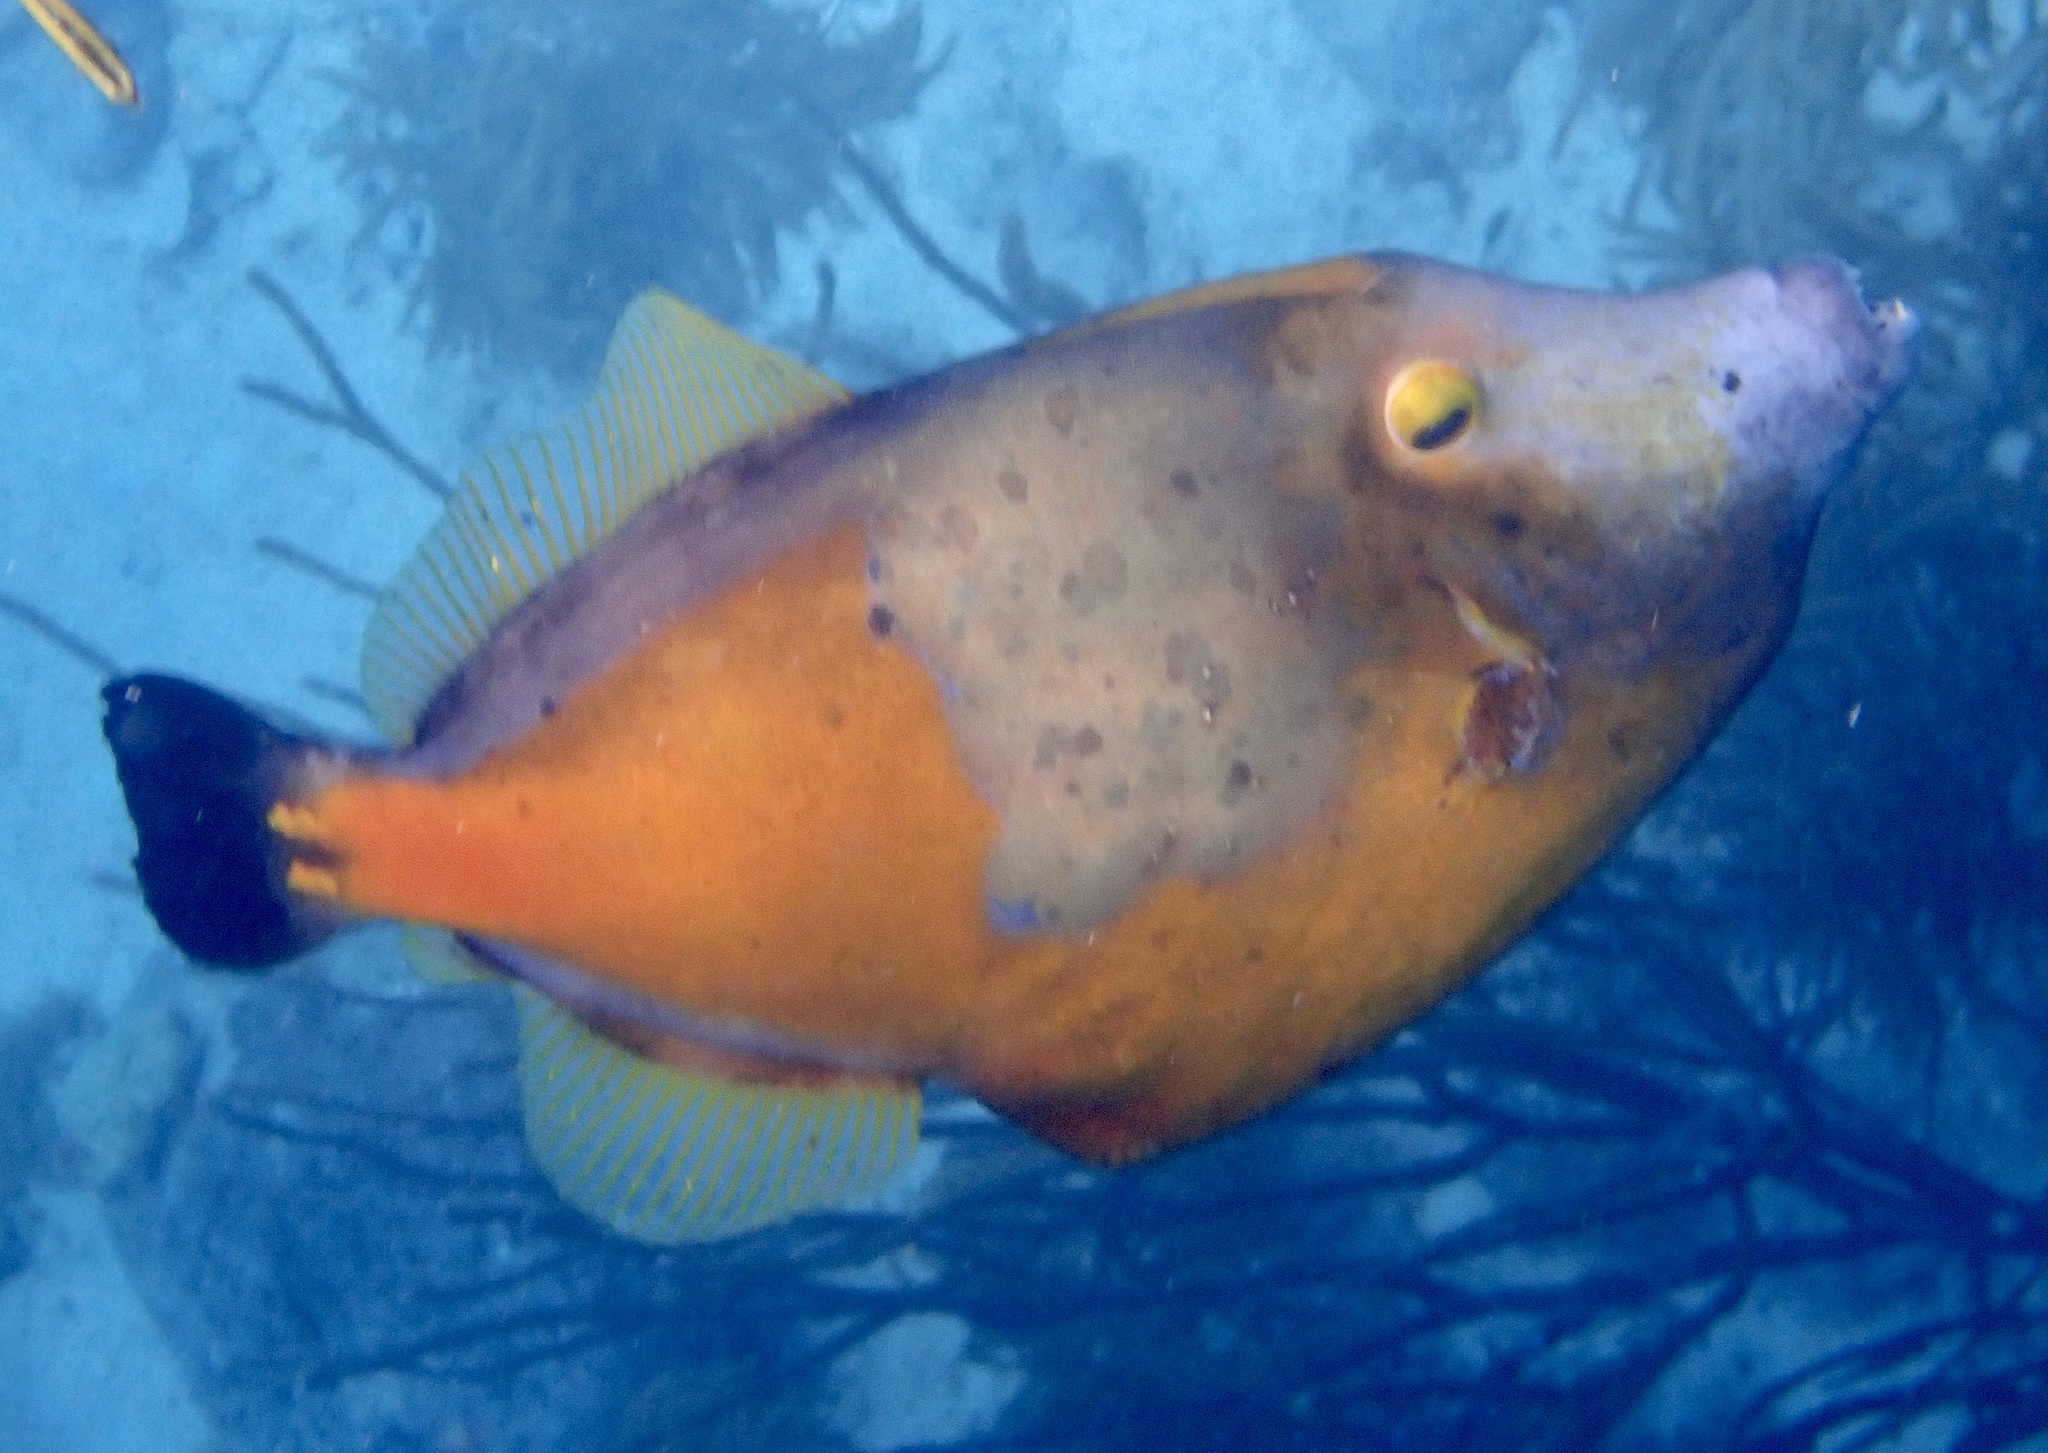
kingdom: Animalia
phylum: Chordata
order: Tetraodontiformes
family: Monacanthidae
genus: Cantherhines
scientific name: Cantherhines macrocerus
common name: Whitespotted filefish
